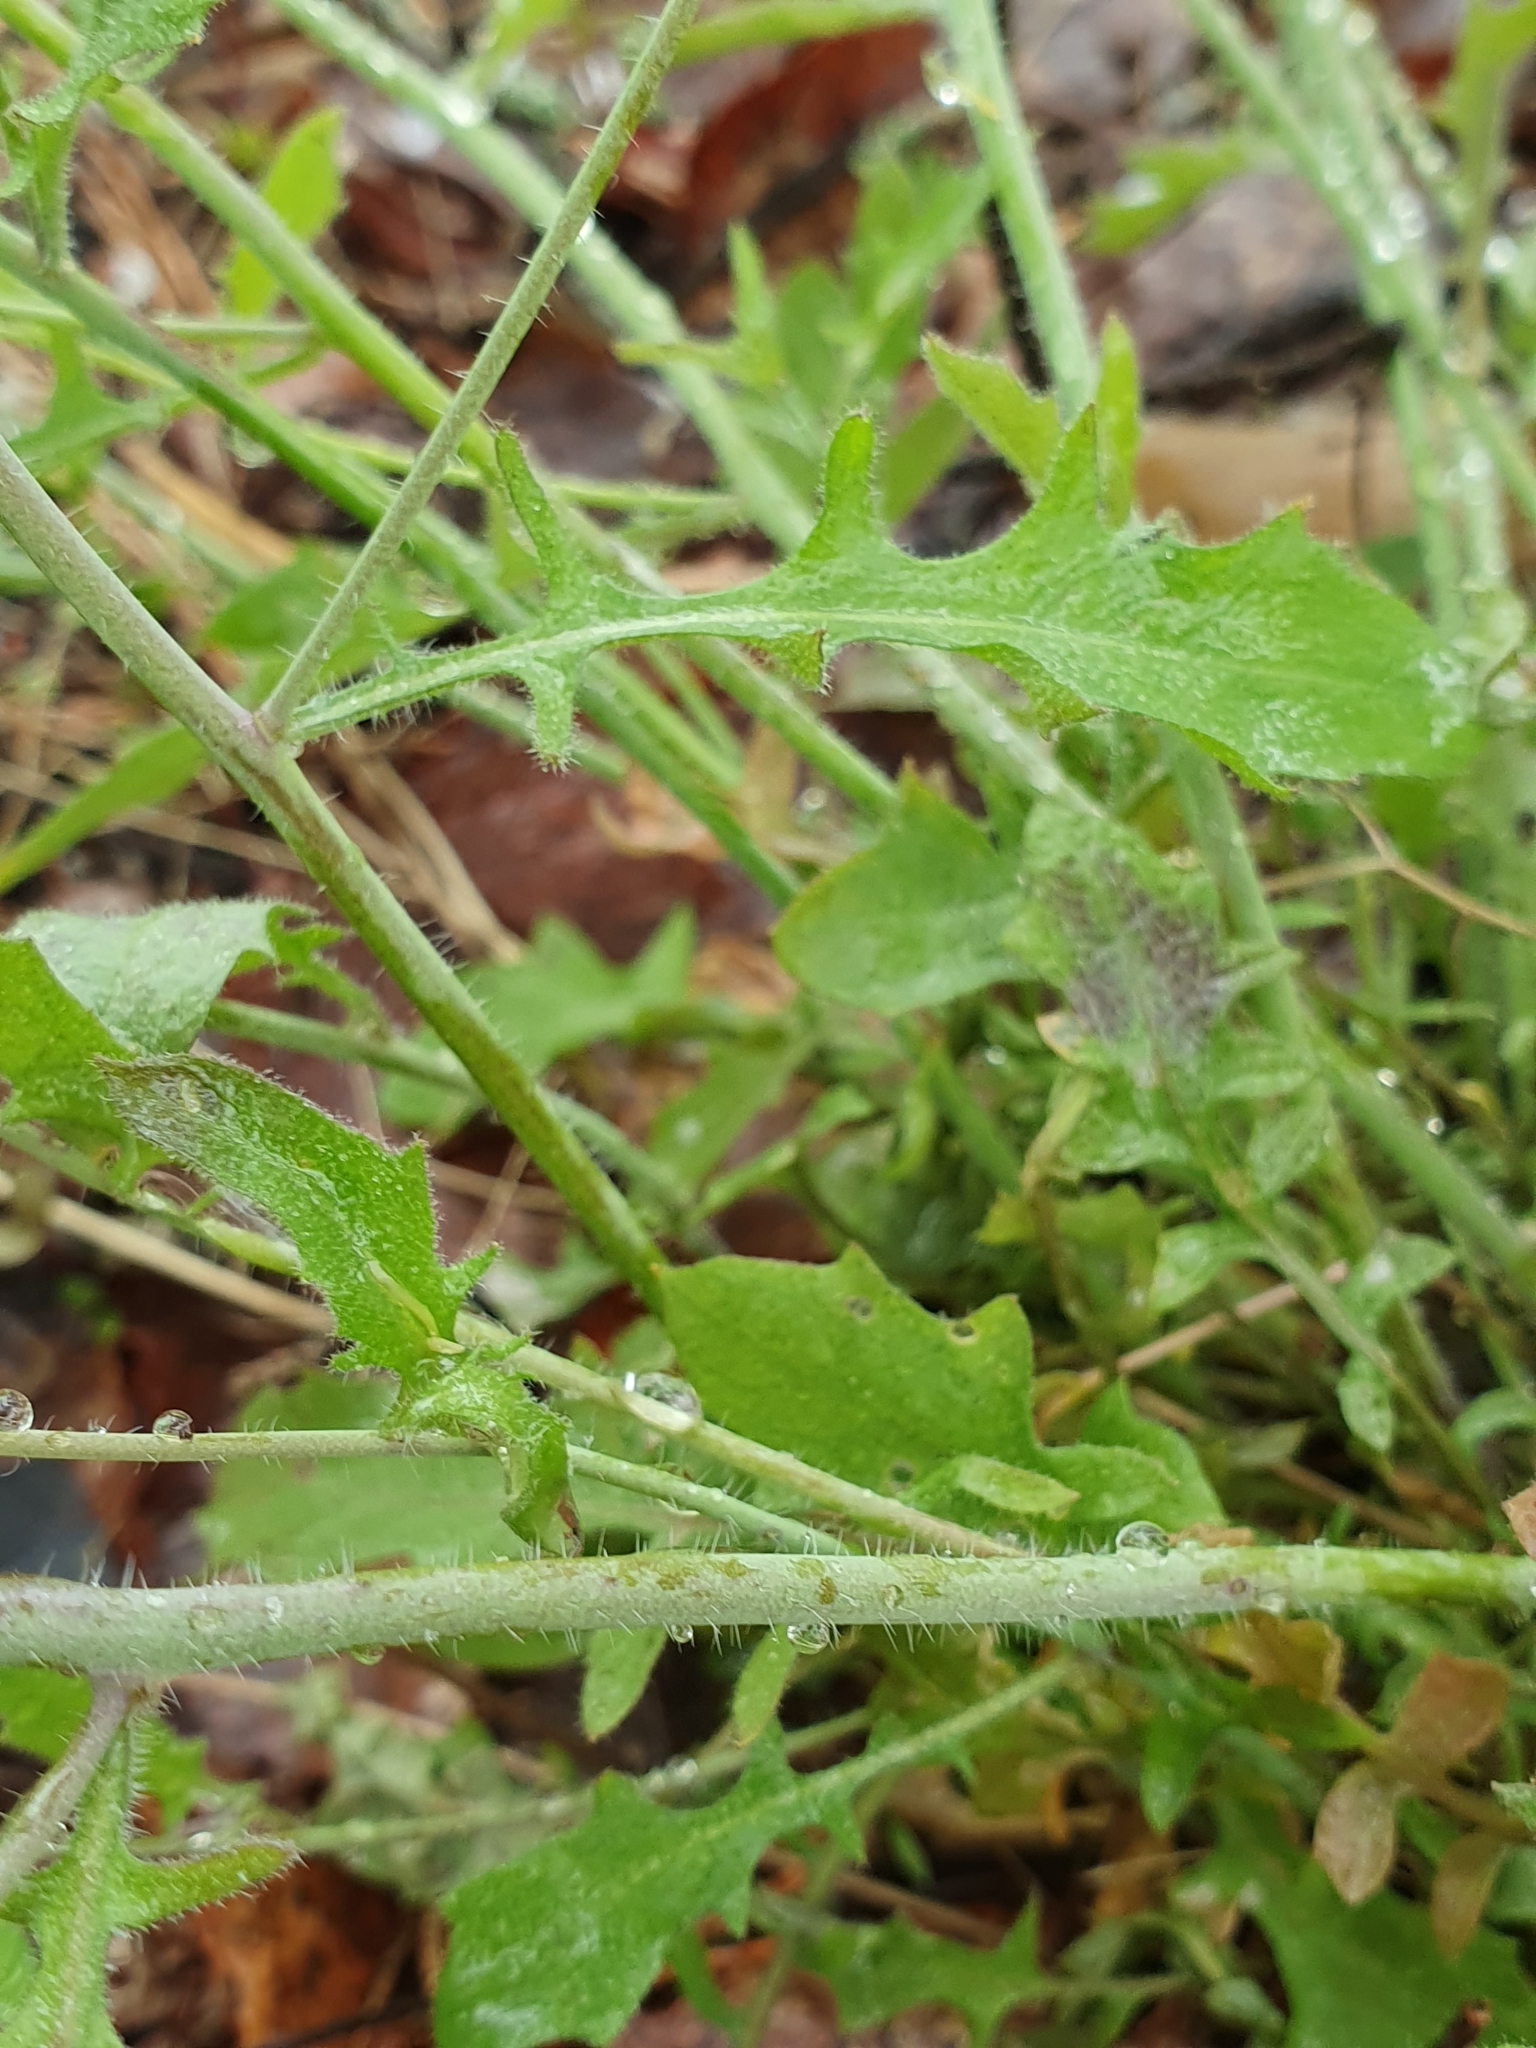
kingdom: Plantae
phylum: Tracheophyta
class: Magnoliopsida
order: Brassicales
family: Brassicaceae
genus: Cardamine
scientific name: Cardamine pratensis
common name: Cuckoo flower
